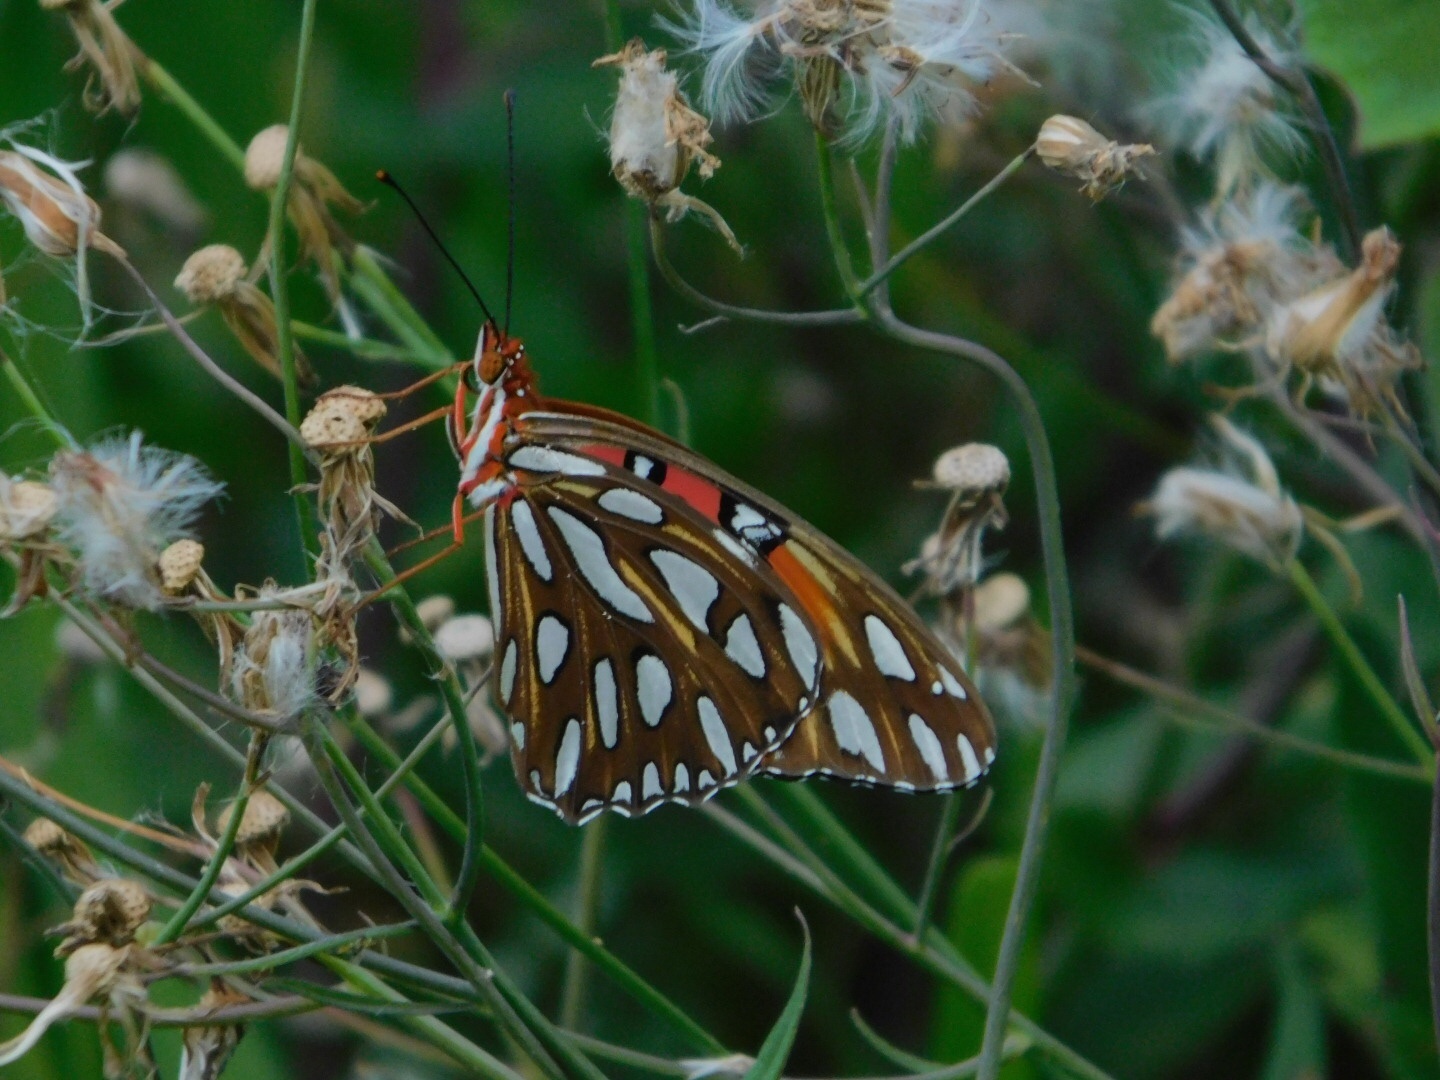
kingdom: Animalia
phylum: Arthropoda
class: Insecta
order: Lepidoptera
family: Nymphalidae
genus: Dione
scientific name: Dione vanillae
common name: Gulf fritillary
